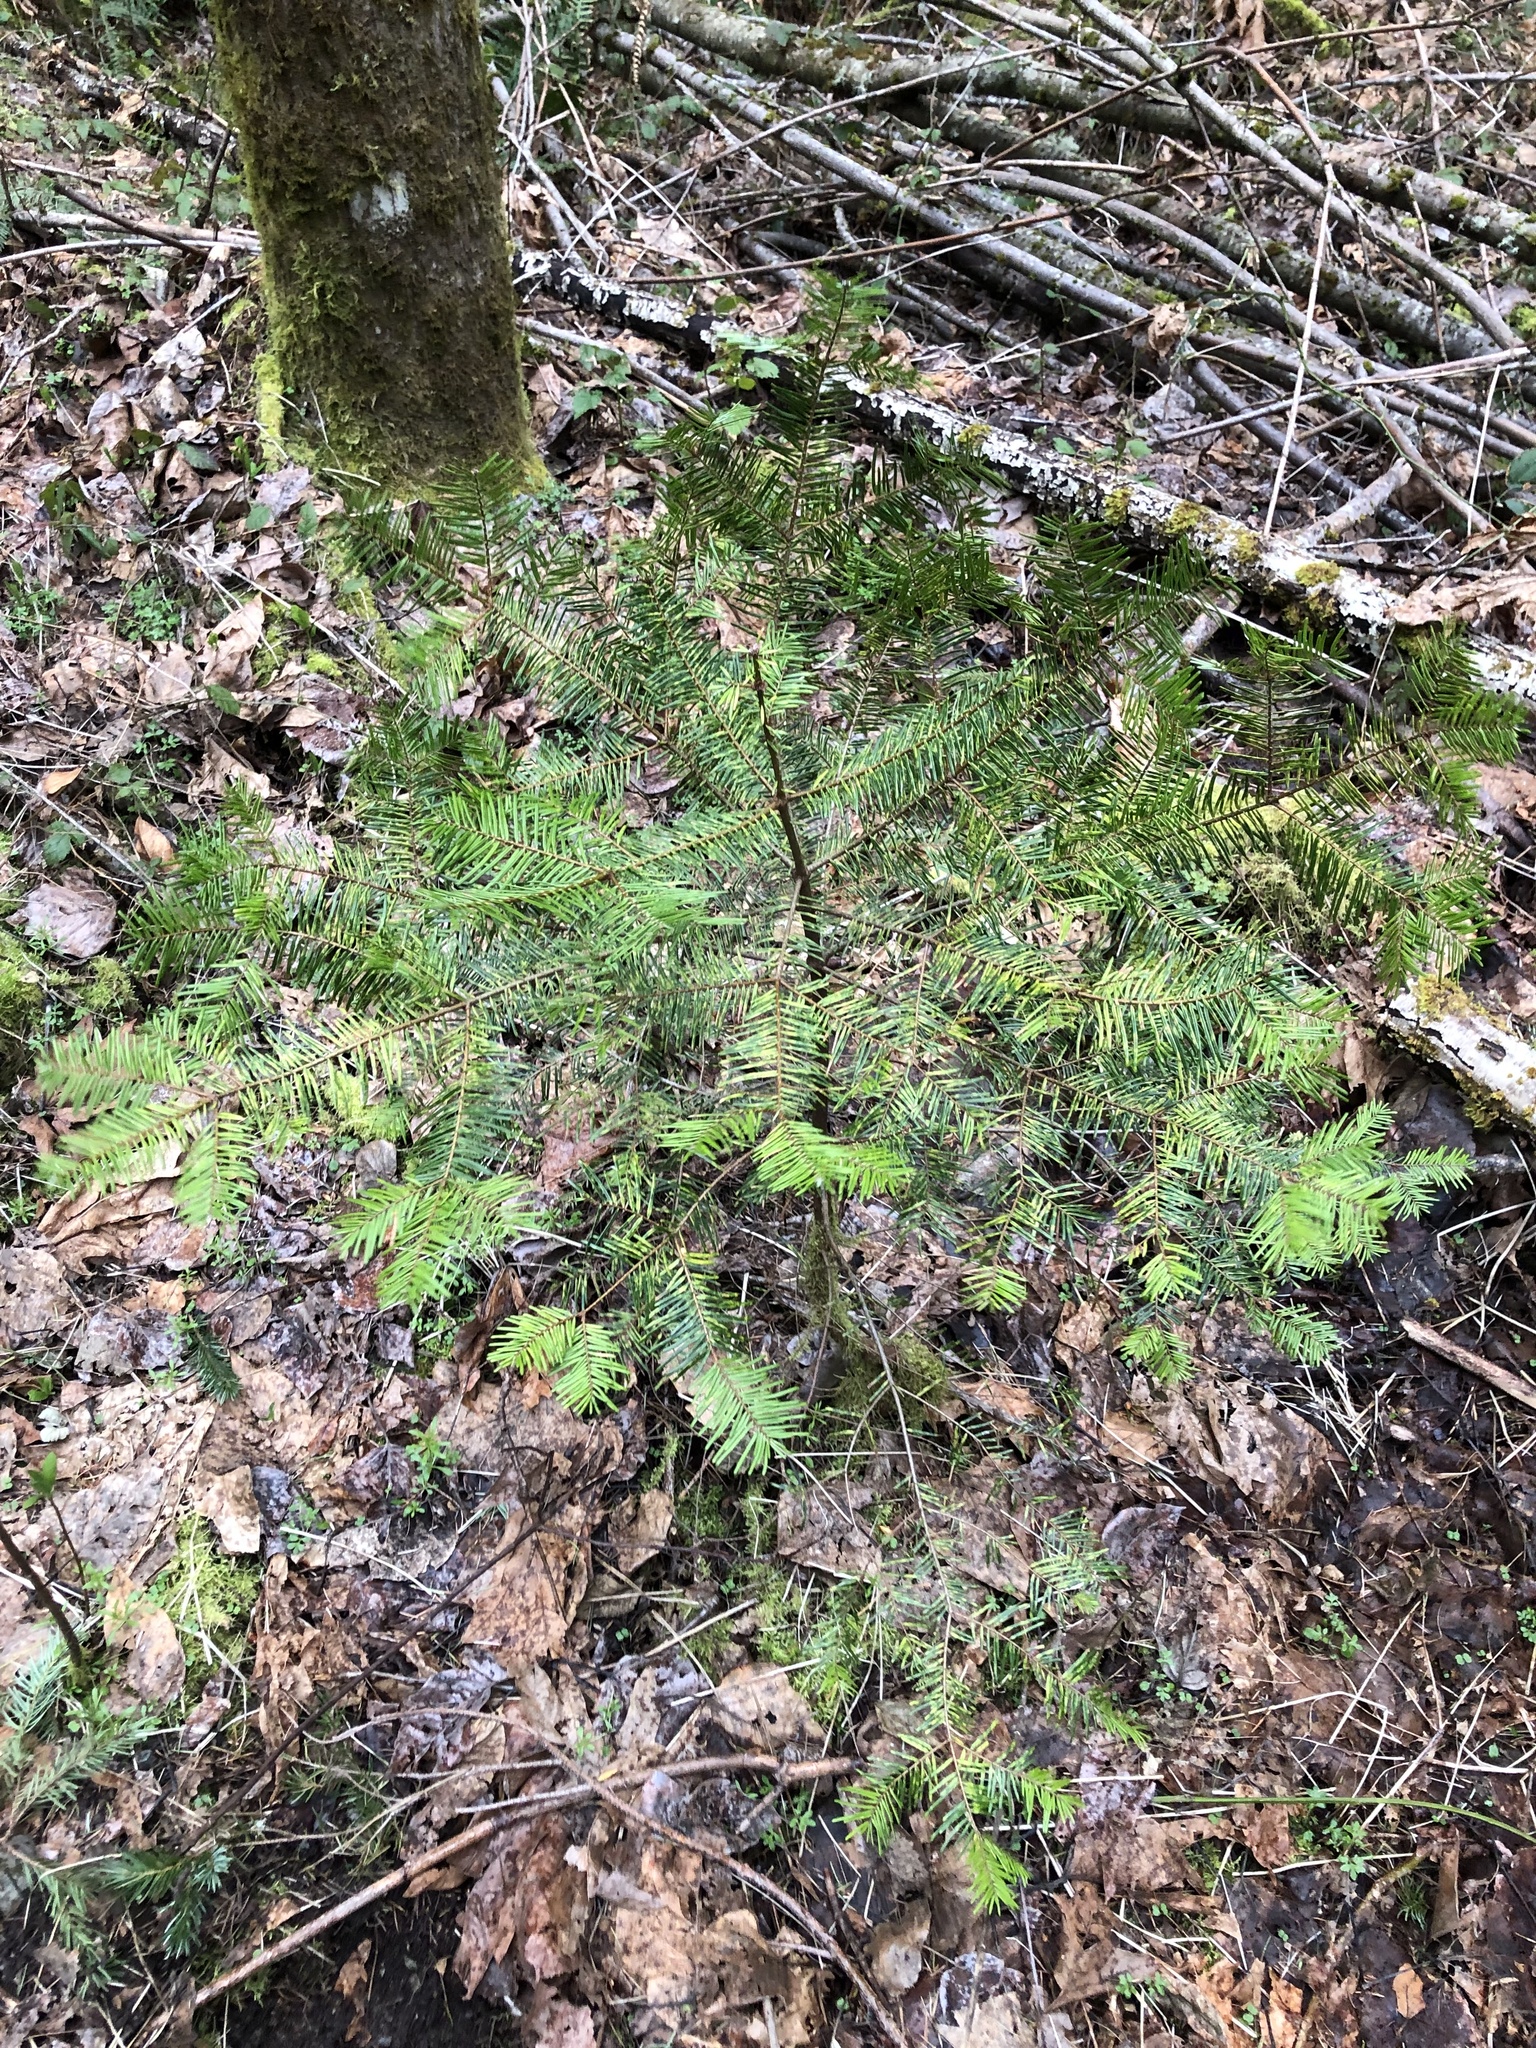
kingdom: Plantae
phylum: Tracheophyta
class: Pinopsida
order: Pinales
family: Pinaceae
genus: Abies
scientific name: Abies grandis
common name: Giant fir
